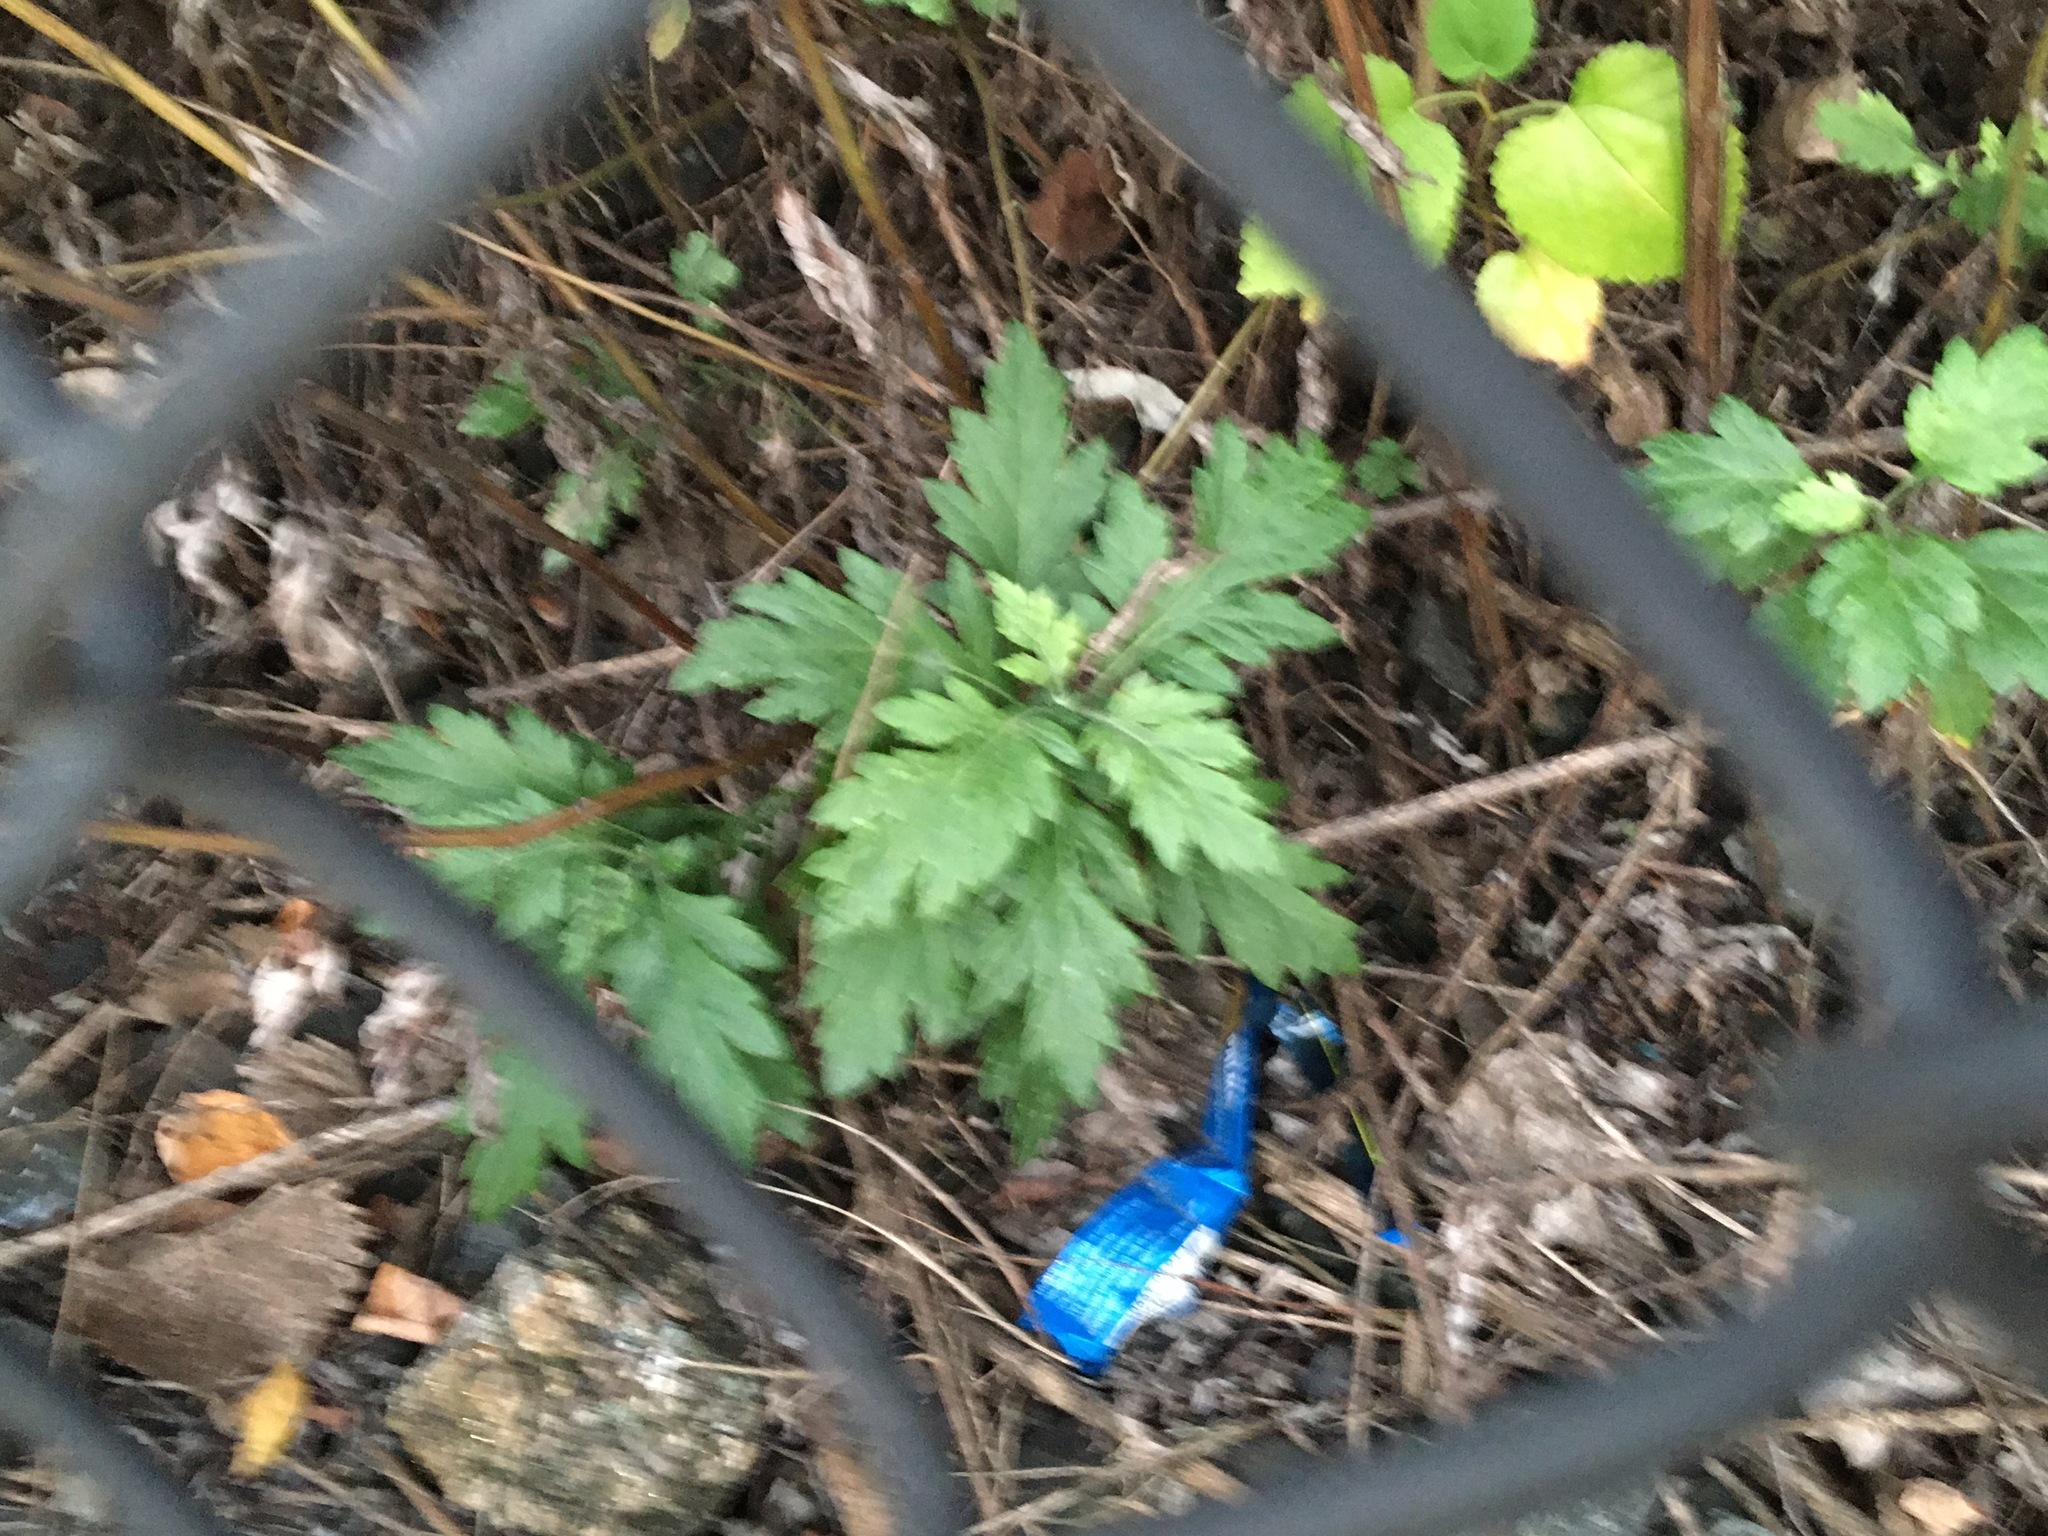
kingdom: Plantae
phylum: Tracheophyta
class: Magnoliopsida
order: Asterales
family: Asteraceae
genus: Artemisia
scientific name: Artemisia vulgaris
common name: Mugwort
